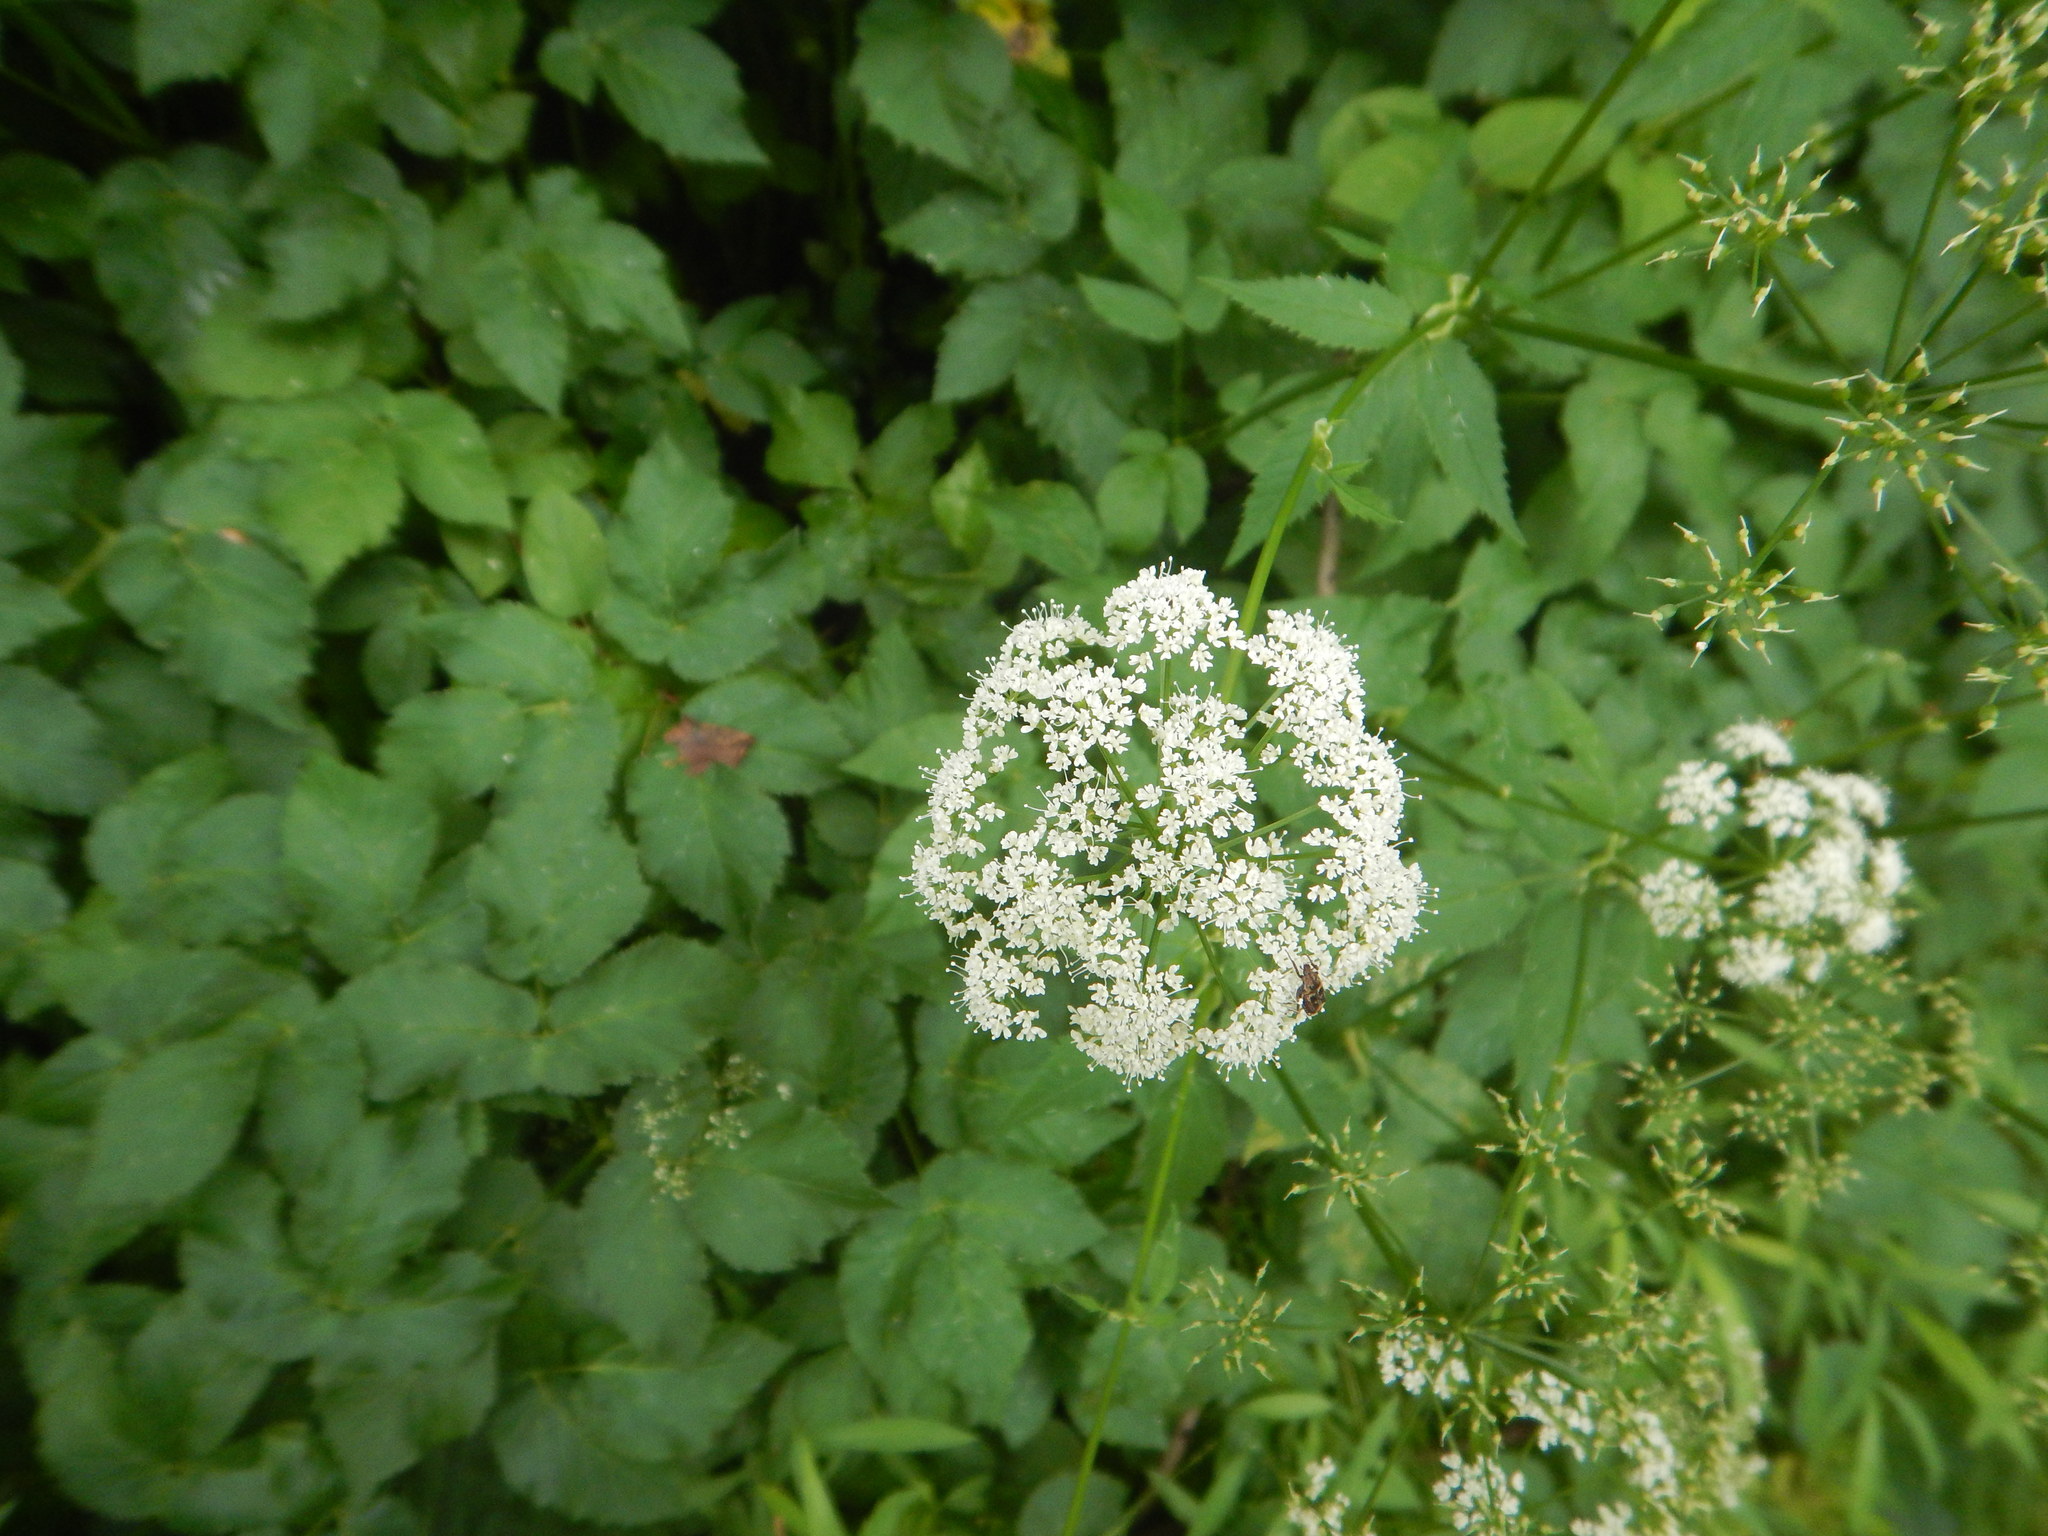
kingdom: Plantae
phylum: Tracheophyta
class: Magnoliopsida
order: Apiales
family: Apiaceae
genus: Aegopodium
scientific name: Aegopodium podagraria
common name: Ground-elder
